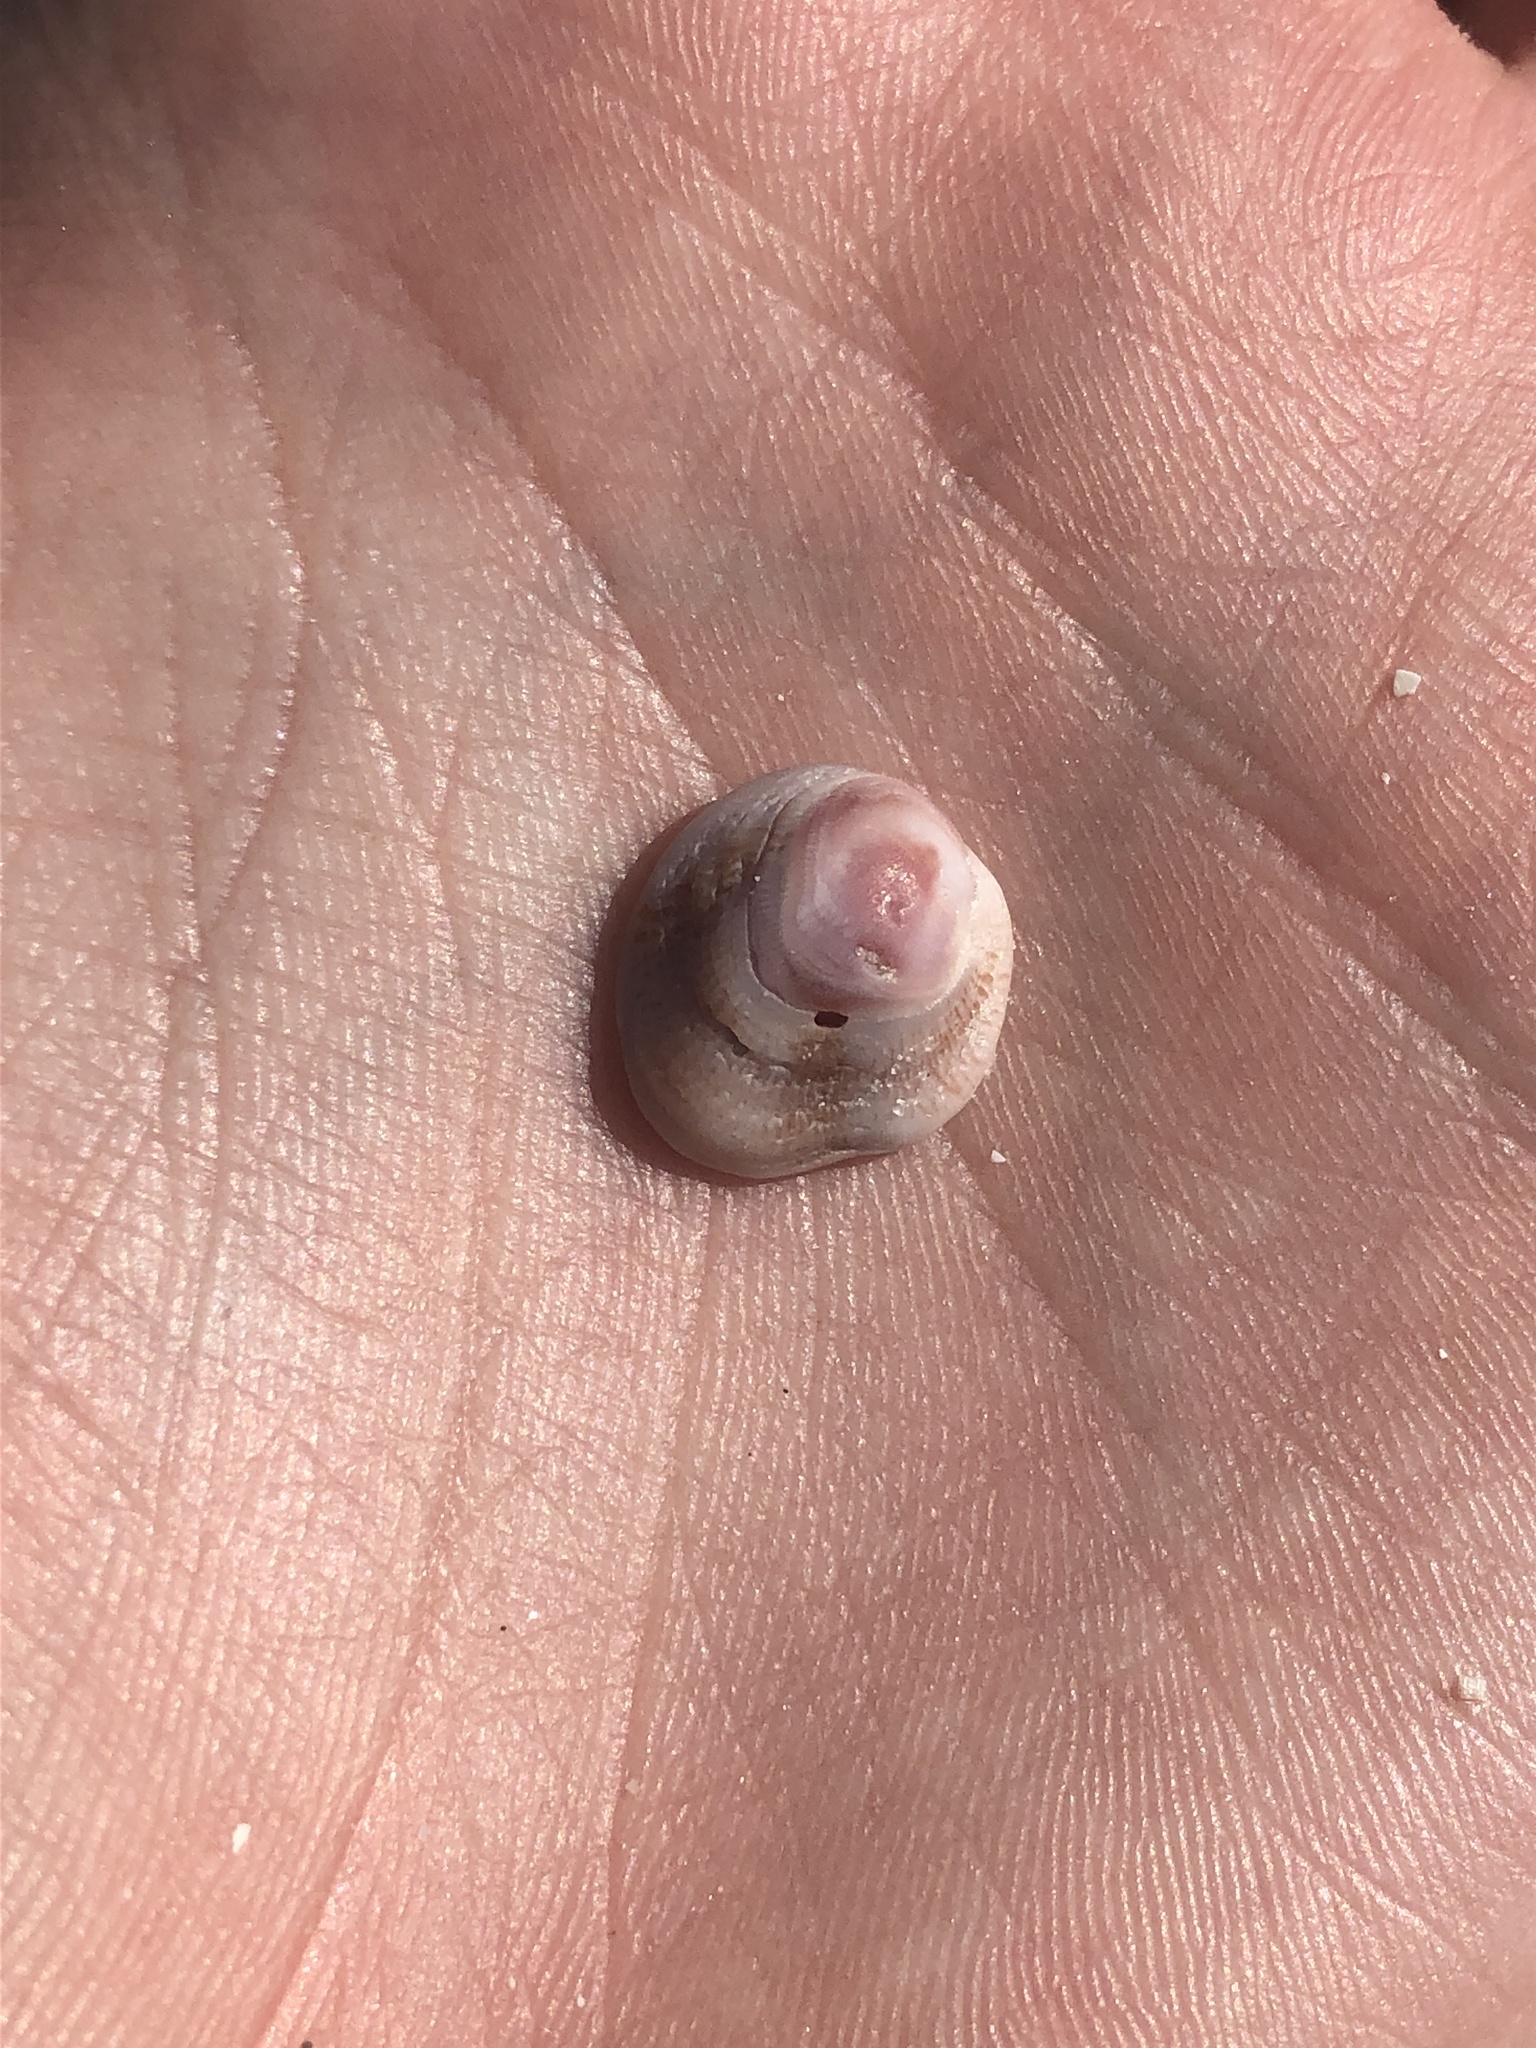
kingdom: Animalia
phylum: Mollusca
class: Bivalvia
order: Venerida
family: Chamidae
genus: Chama
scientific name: Chama congregata
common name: Corrugate jewelbox
